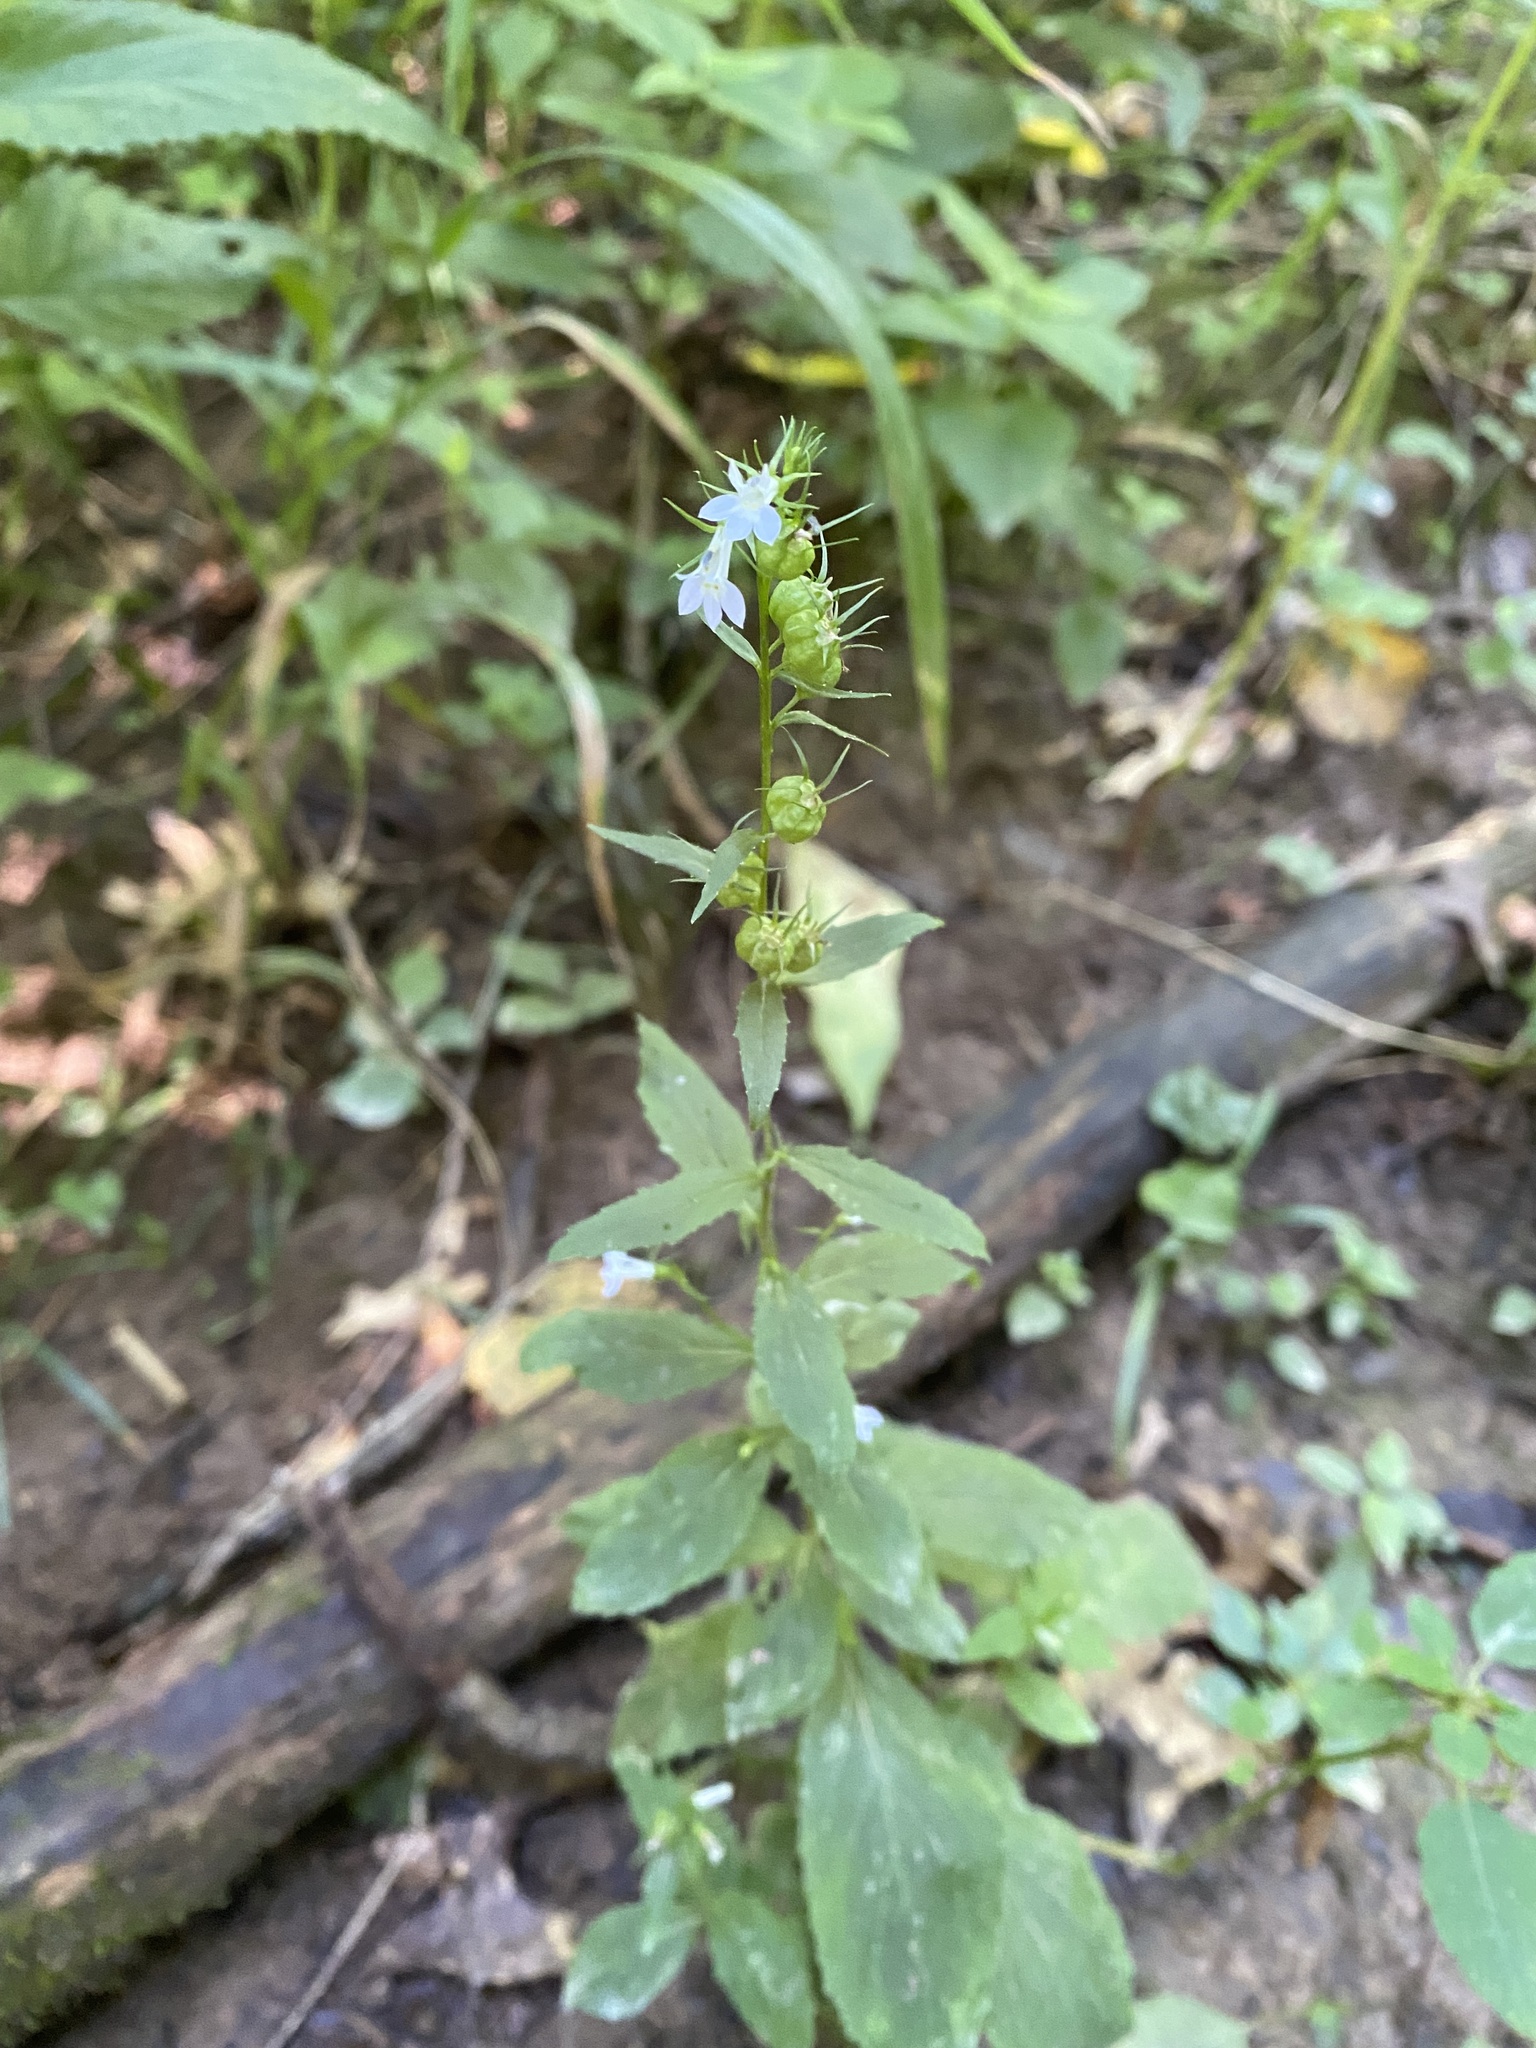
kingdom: Plantae
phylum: Tracheophyta
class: Magnoliopsida
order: Asterales
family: Campanulaceae
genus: Lobelia
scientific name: Lobelia inflata
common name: Indian tobacco
